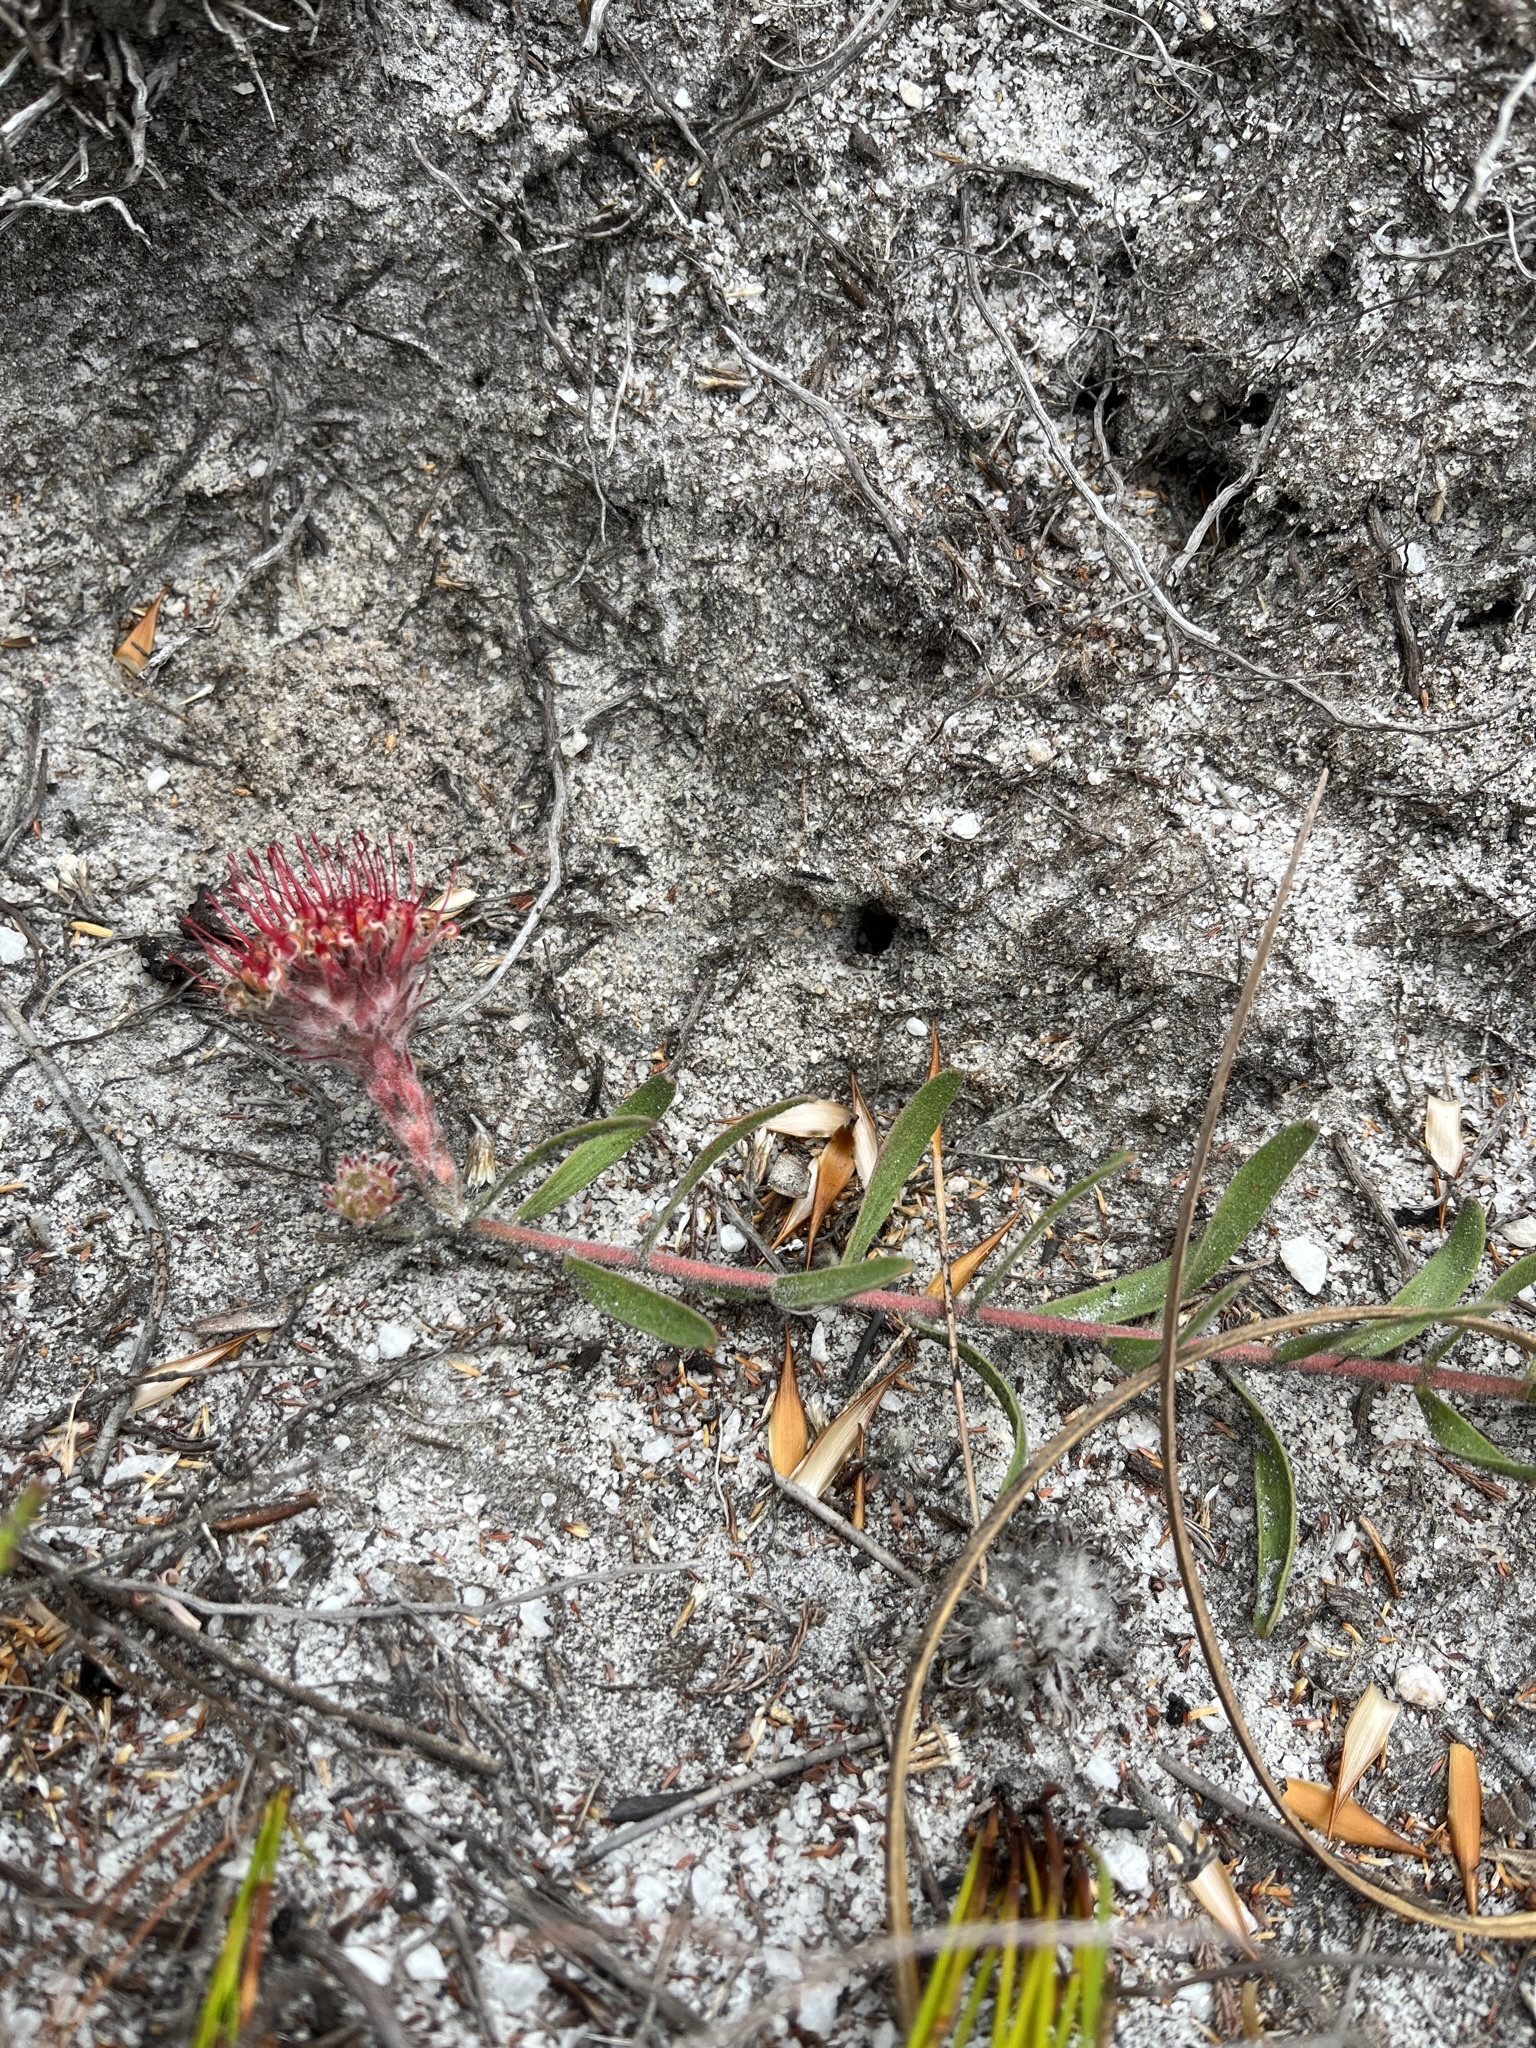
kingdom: Plantae
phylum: Tracheophyta
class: Magnoliopsida
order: Proteales
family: Proteaceae
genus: Leucospermum
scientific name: Leucospermum pedunculatum
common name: White-trailing pincushion
